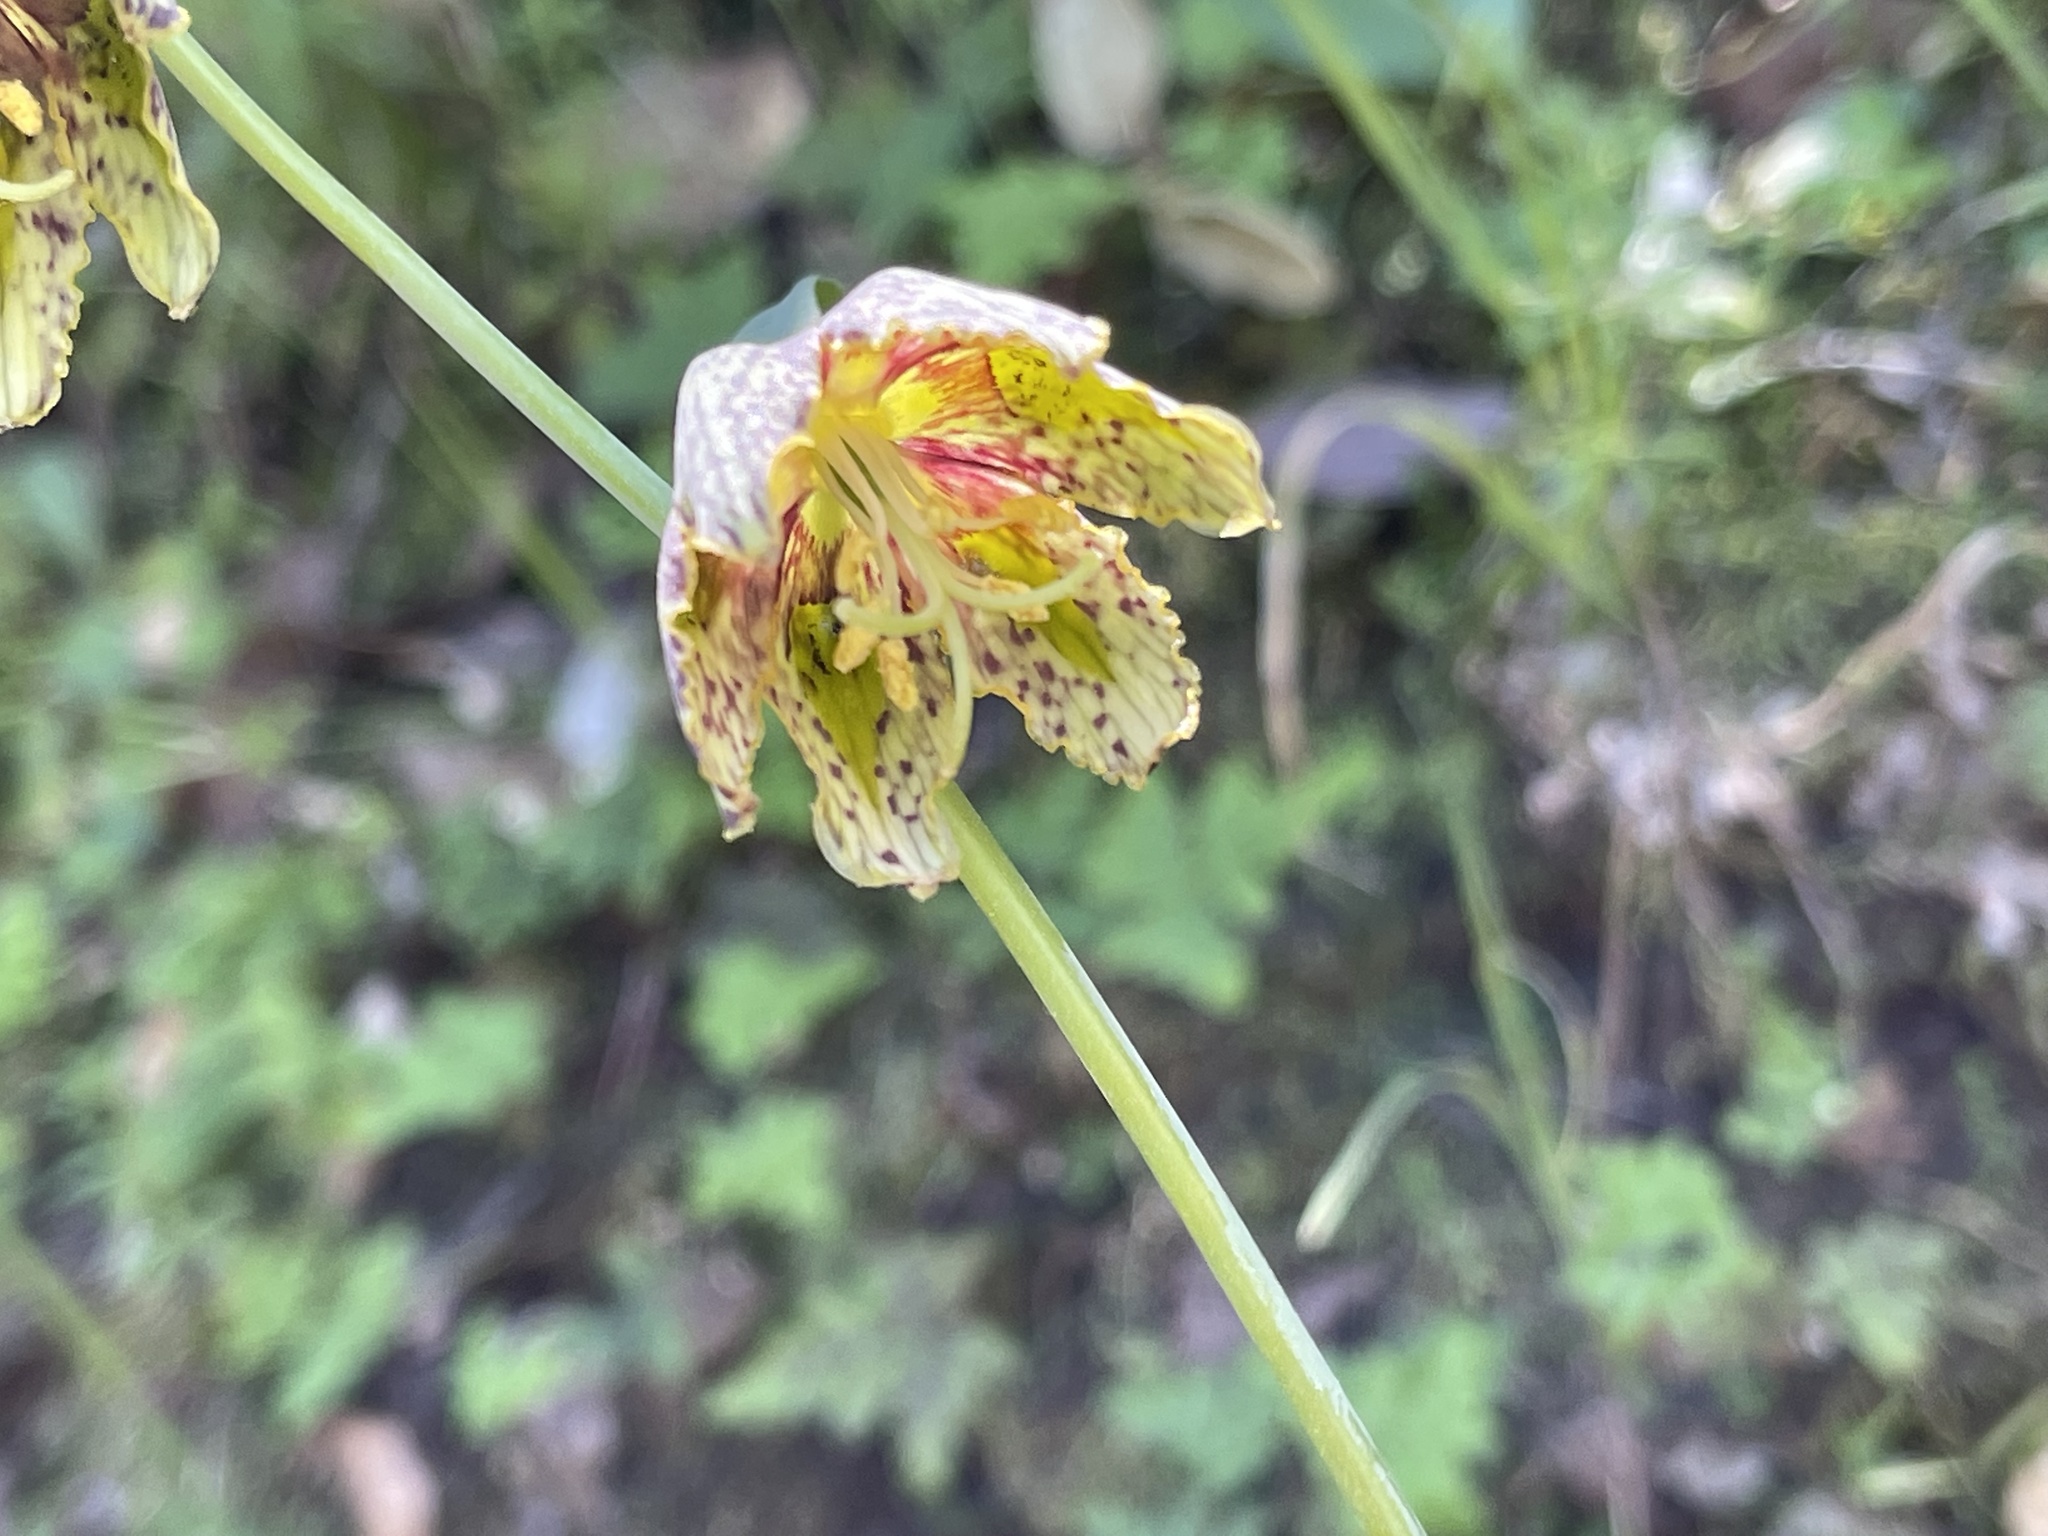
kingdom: Plantae
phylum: Tracheophyta
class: Liliopsida
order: Liliales
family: Liliaceae
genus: Fritillaria
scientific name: Fritillaria affinis
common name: Ojai fritillary
